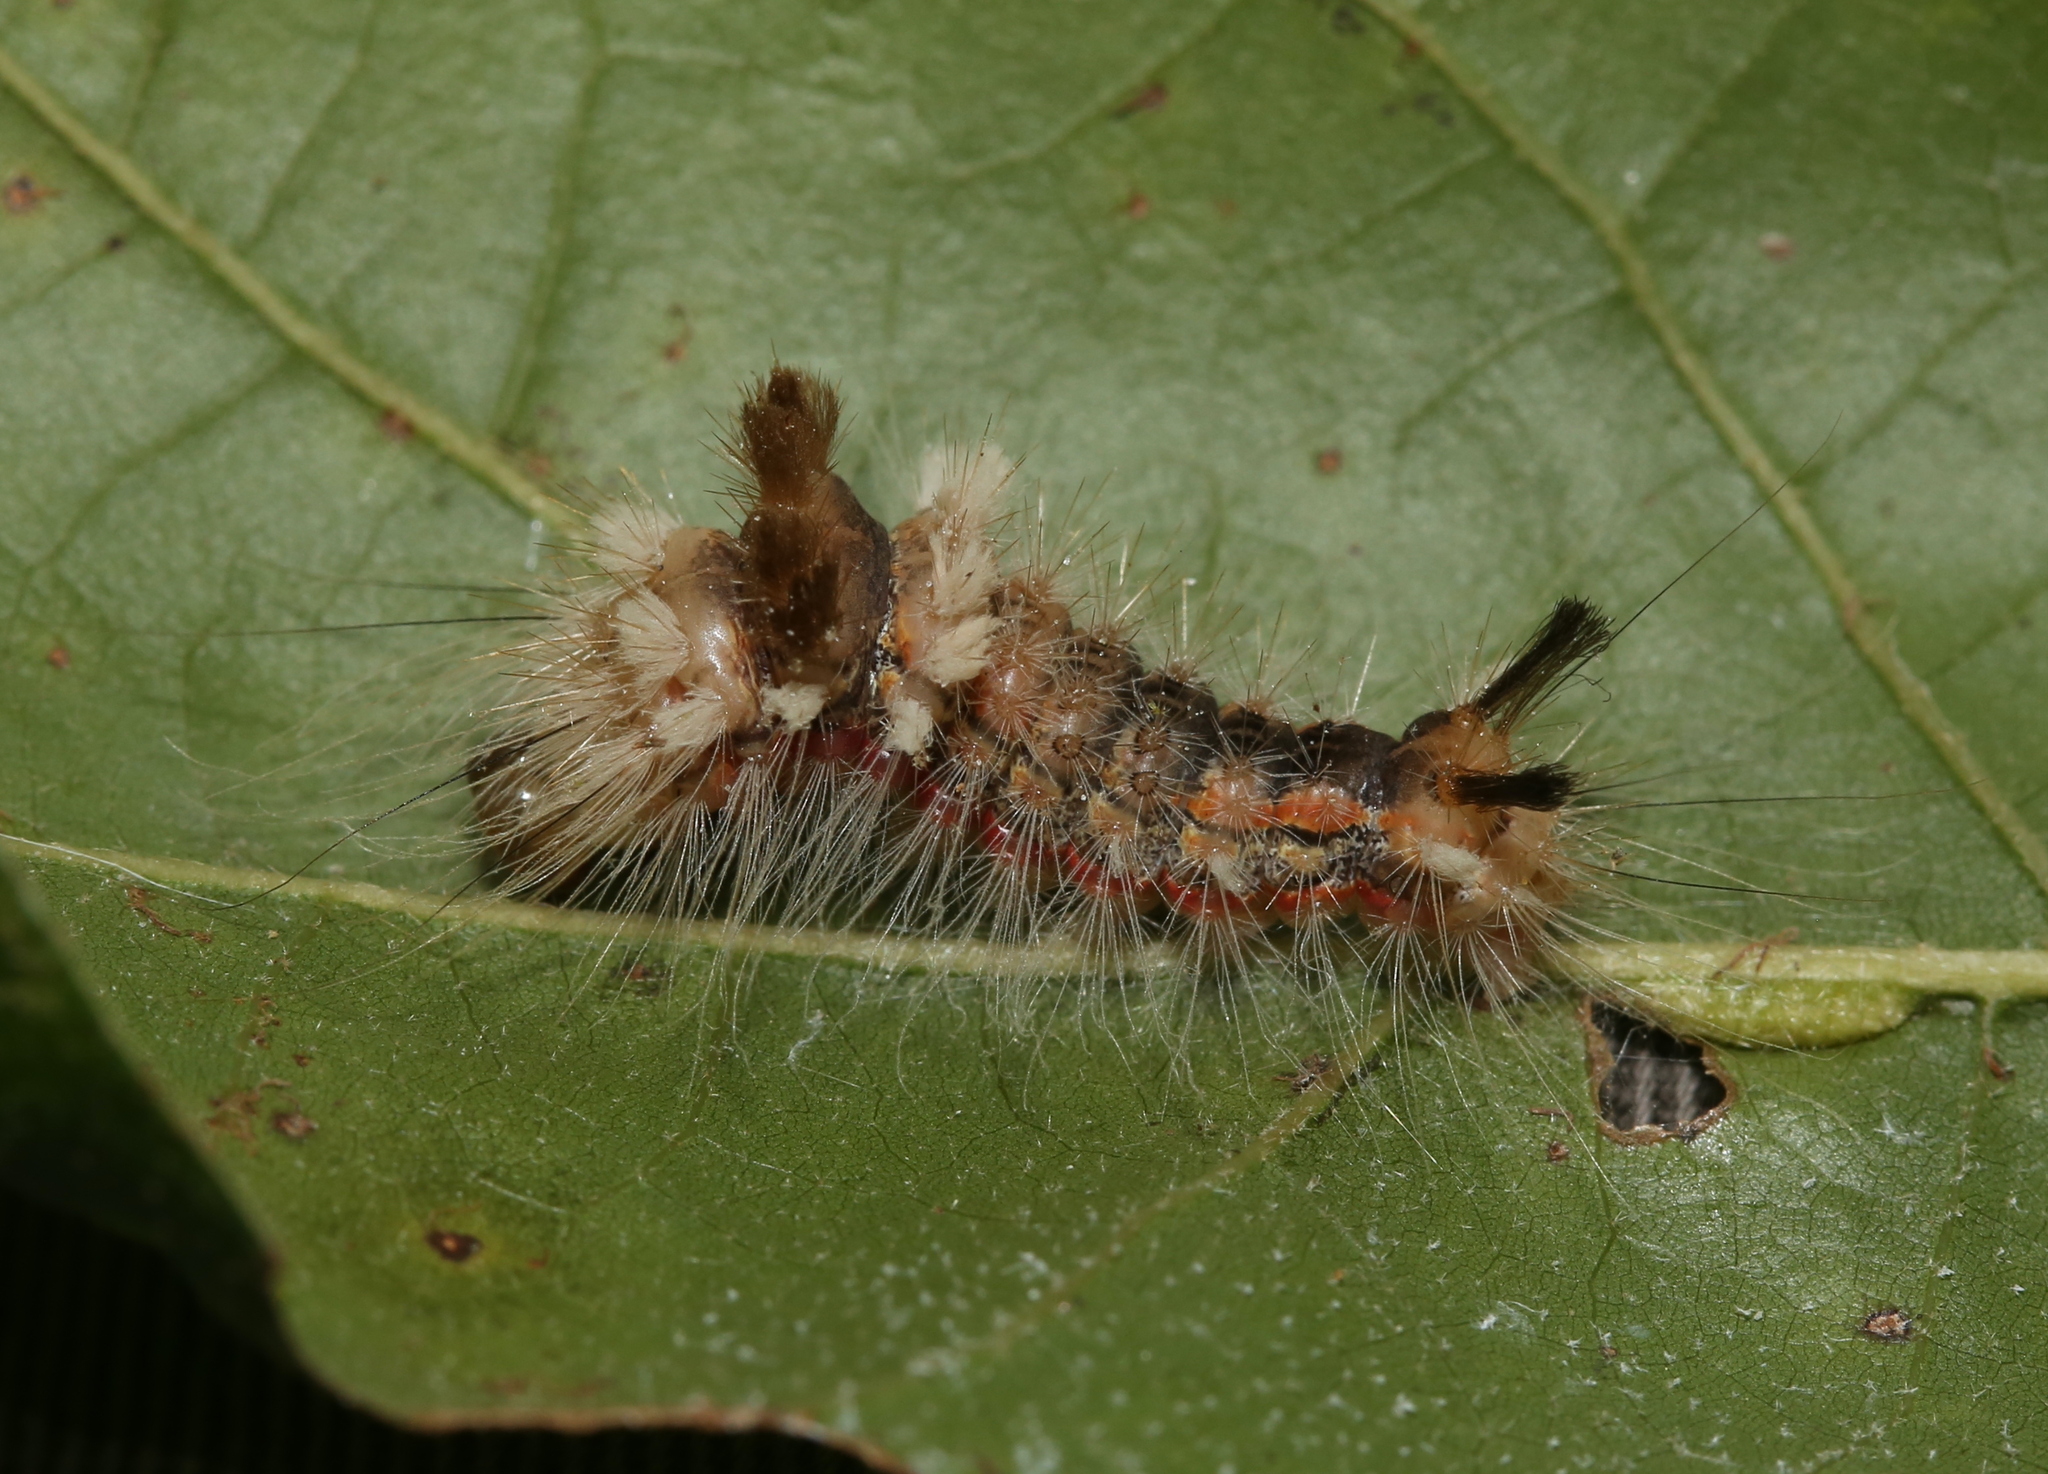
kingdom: Animalia
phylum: Arthropoda
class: Insecta
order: Lepidoptera
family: Noctuidae
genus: Acronicta
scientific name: Acronicta impleta
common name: Powdered dagger
